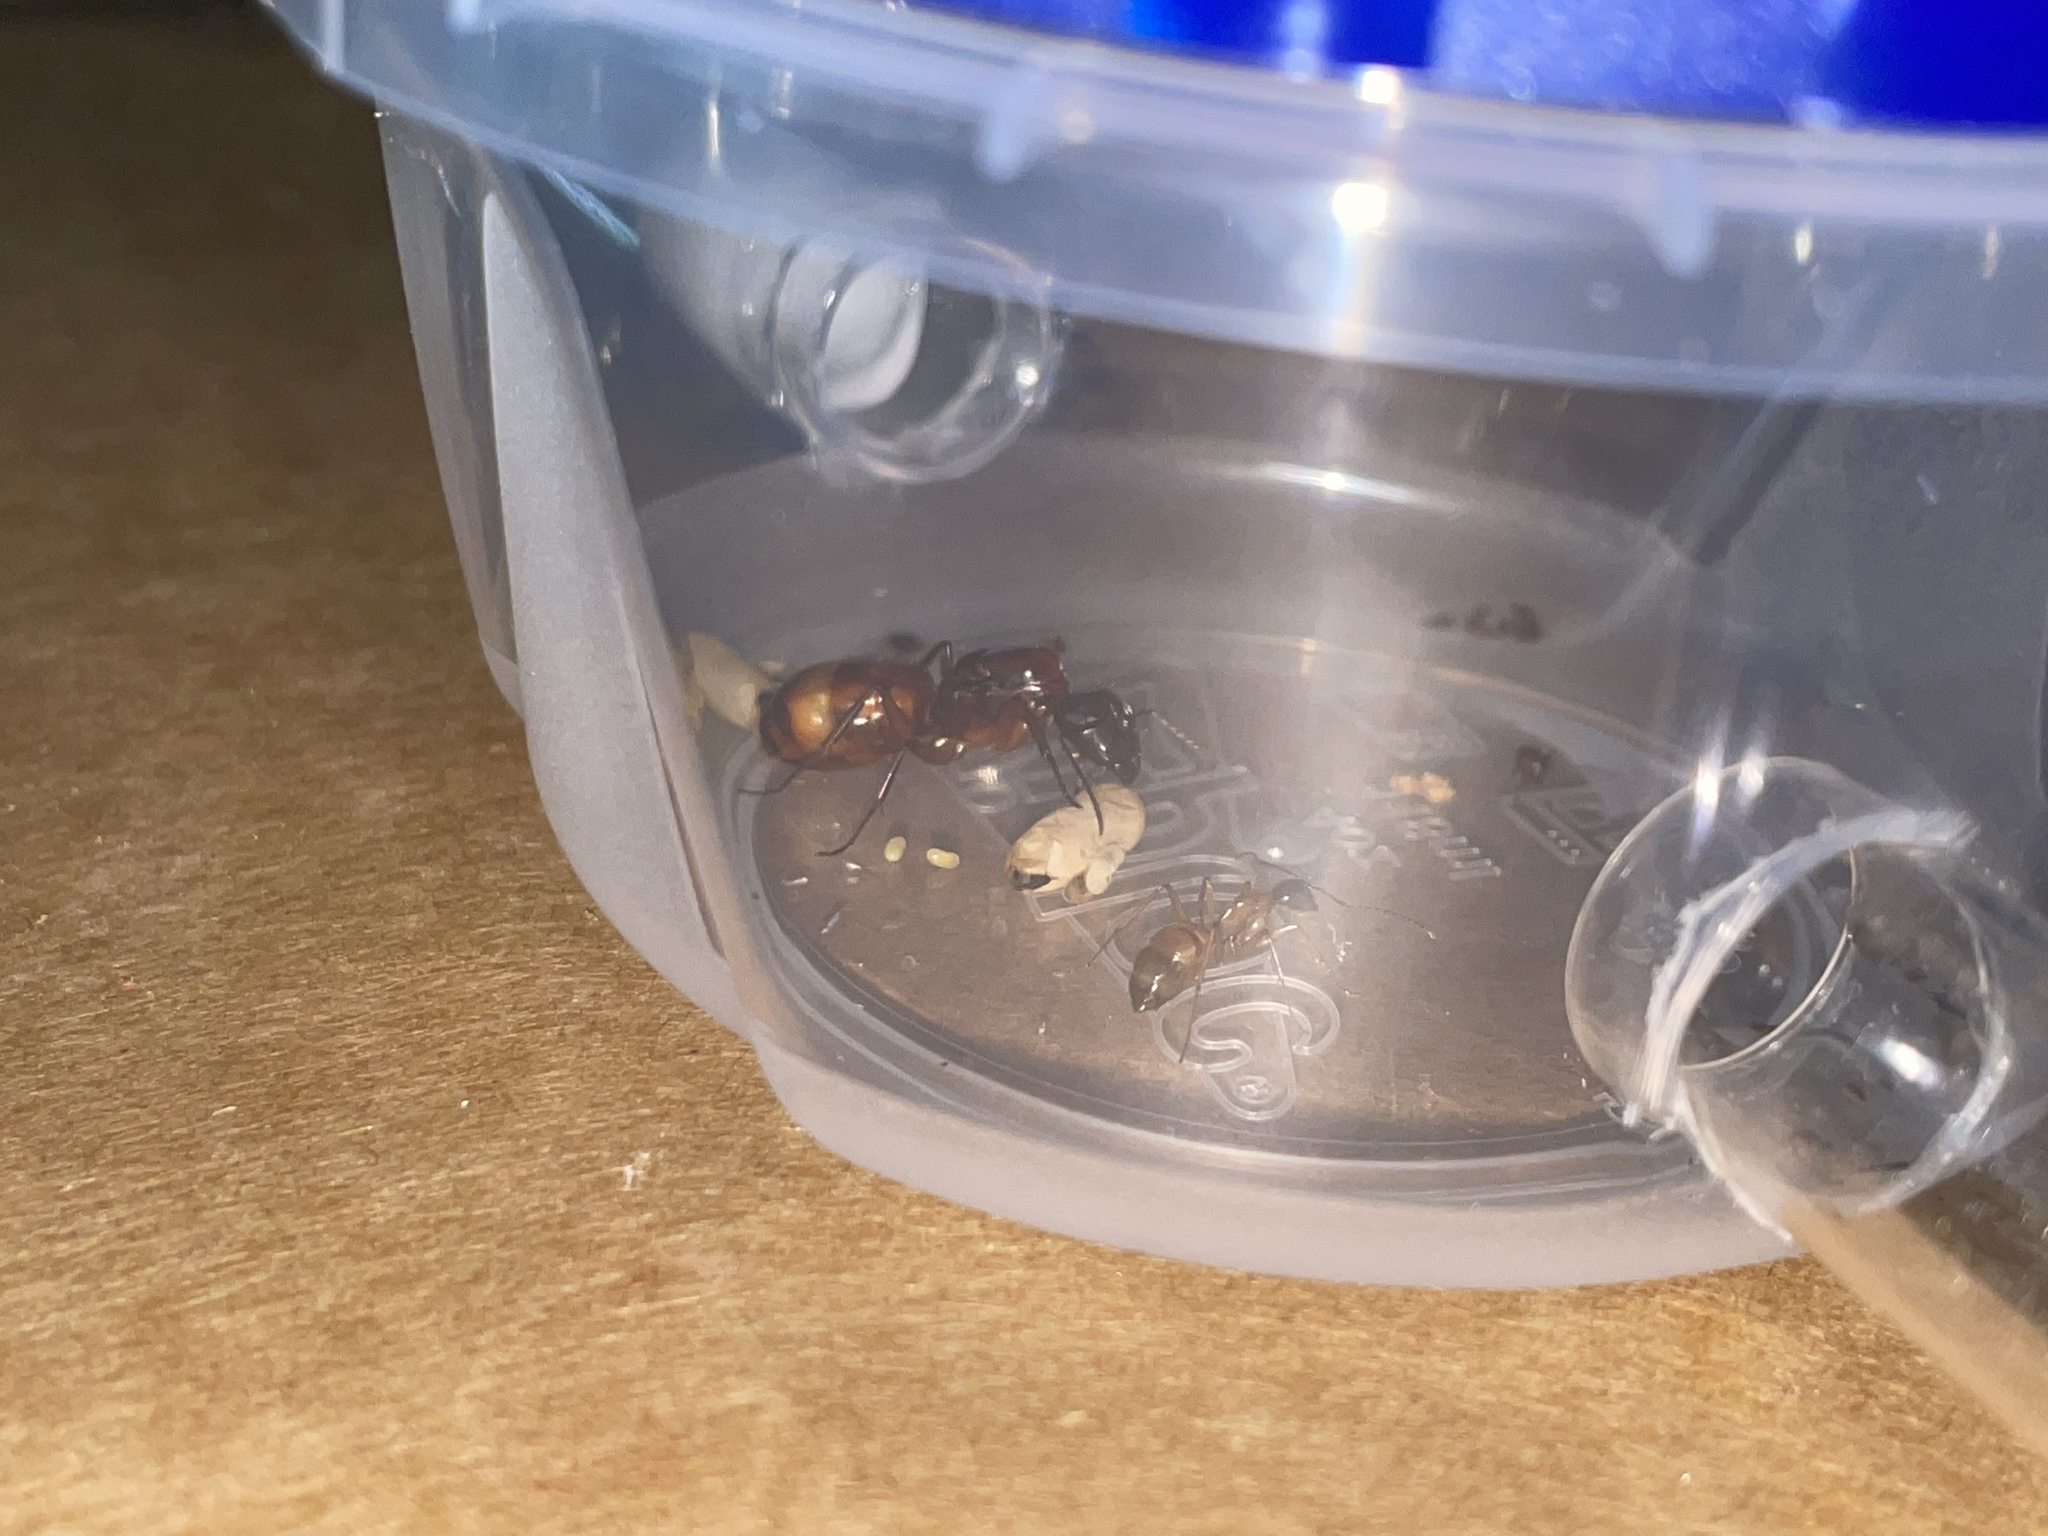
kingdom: Animalia
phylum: Arthropoda
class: Insecta
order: Hymenoptera
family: Formicidae
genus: Camponotus
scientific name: Camponotus americanus
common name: American carpenter ant
